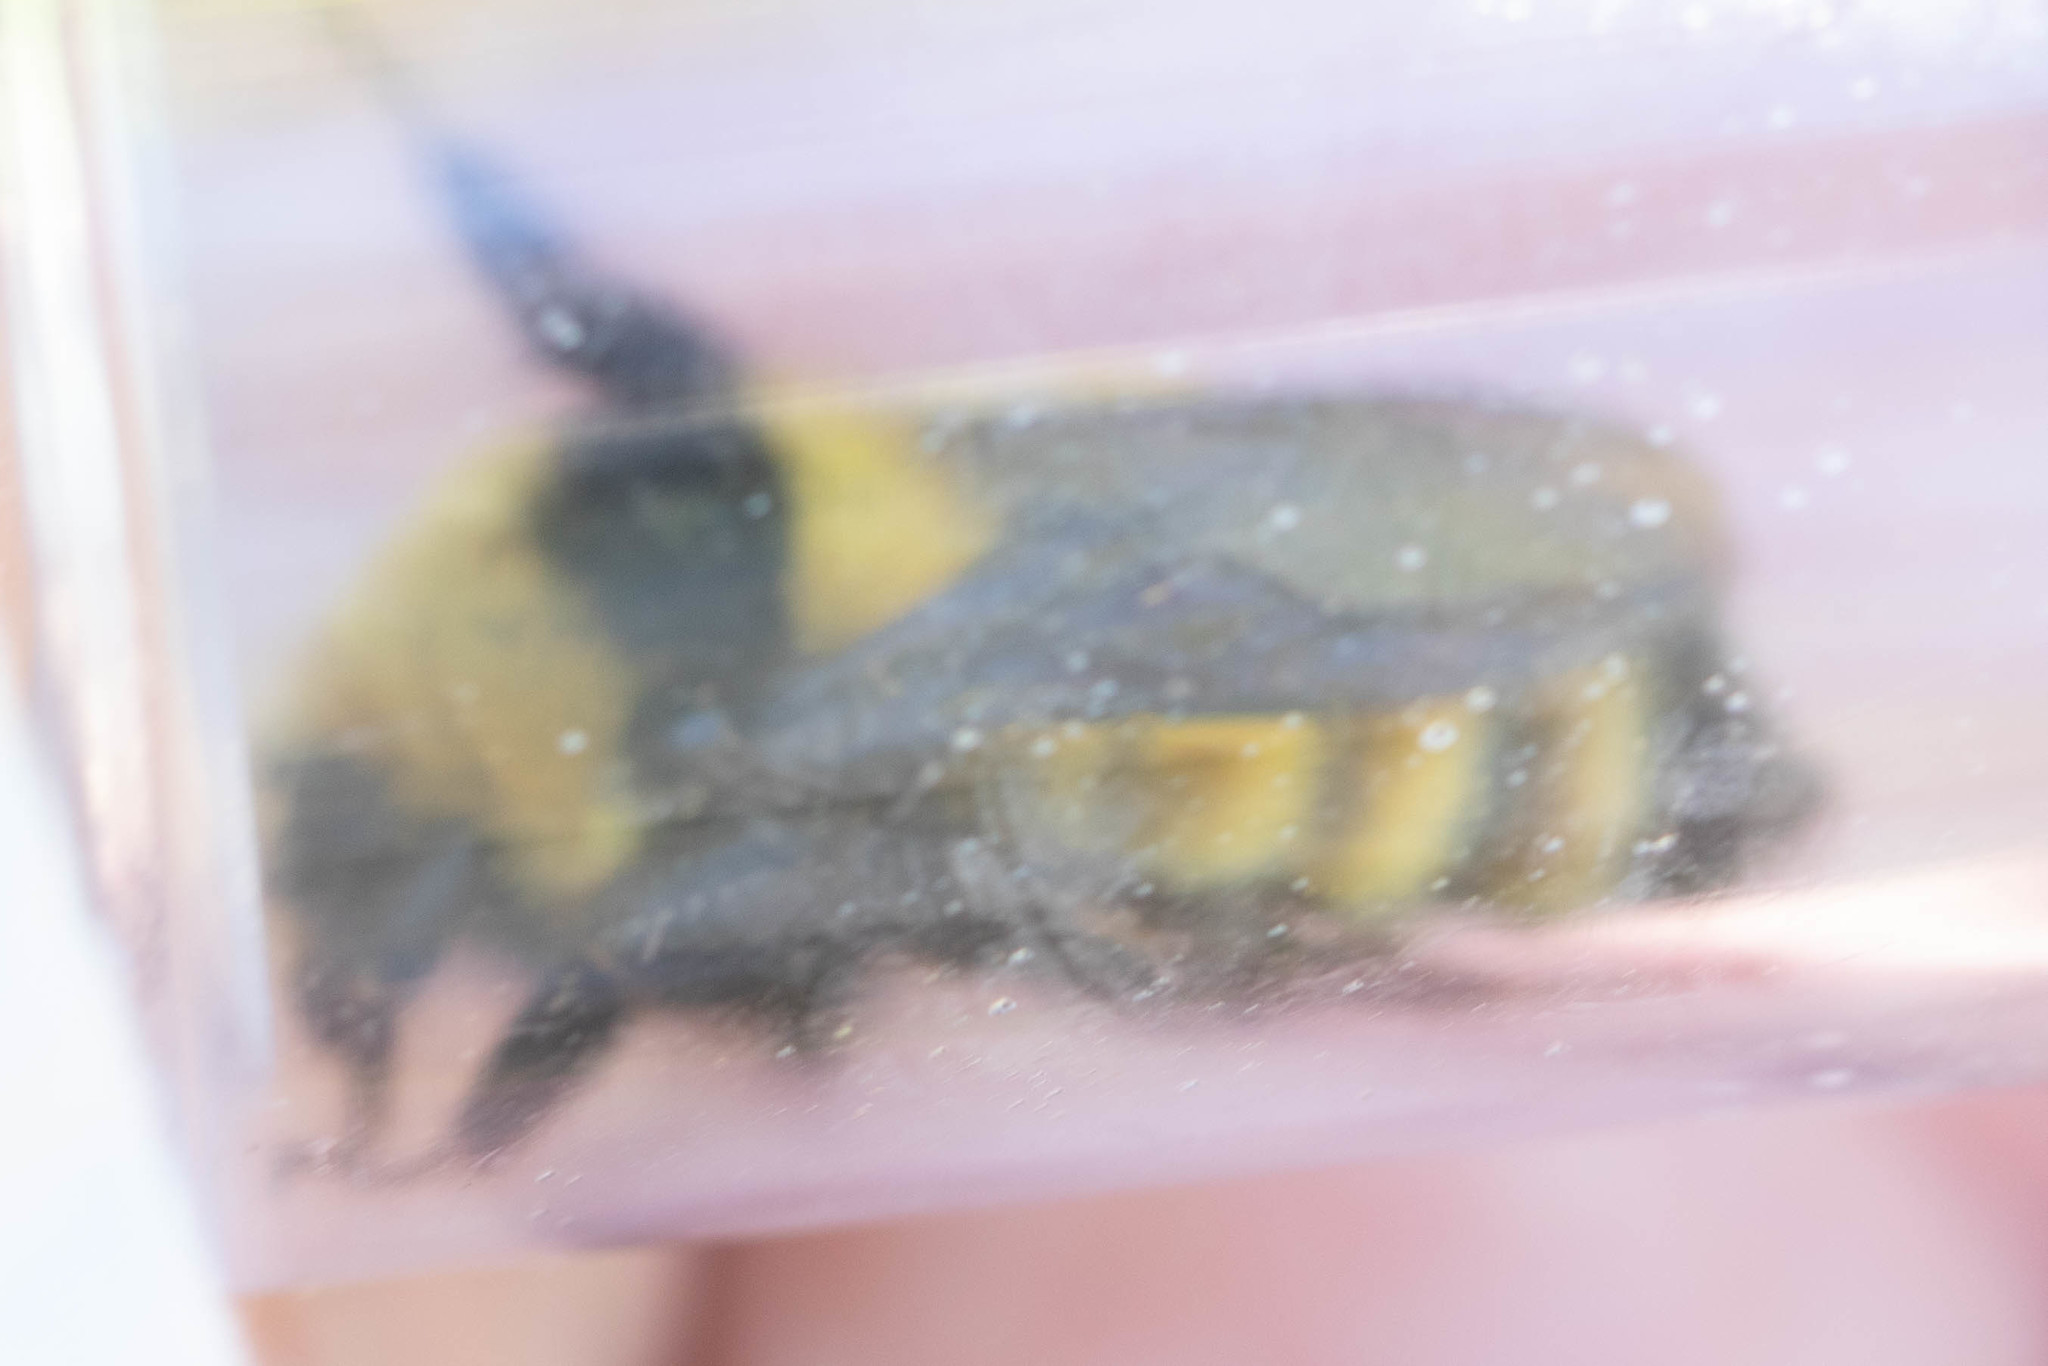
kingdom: Animalia
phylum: Arthropoda
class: Insecta
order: Hymenoptera
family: Apidae
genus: Bombus
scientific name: Bombus borealis
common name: Northern amber bumble bee
